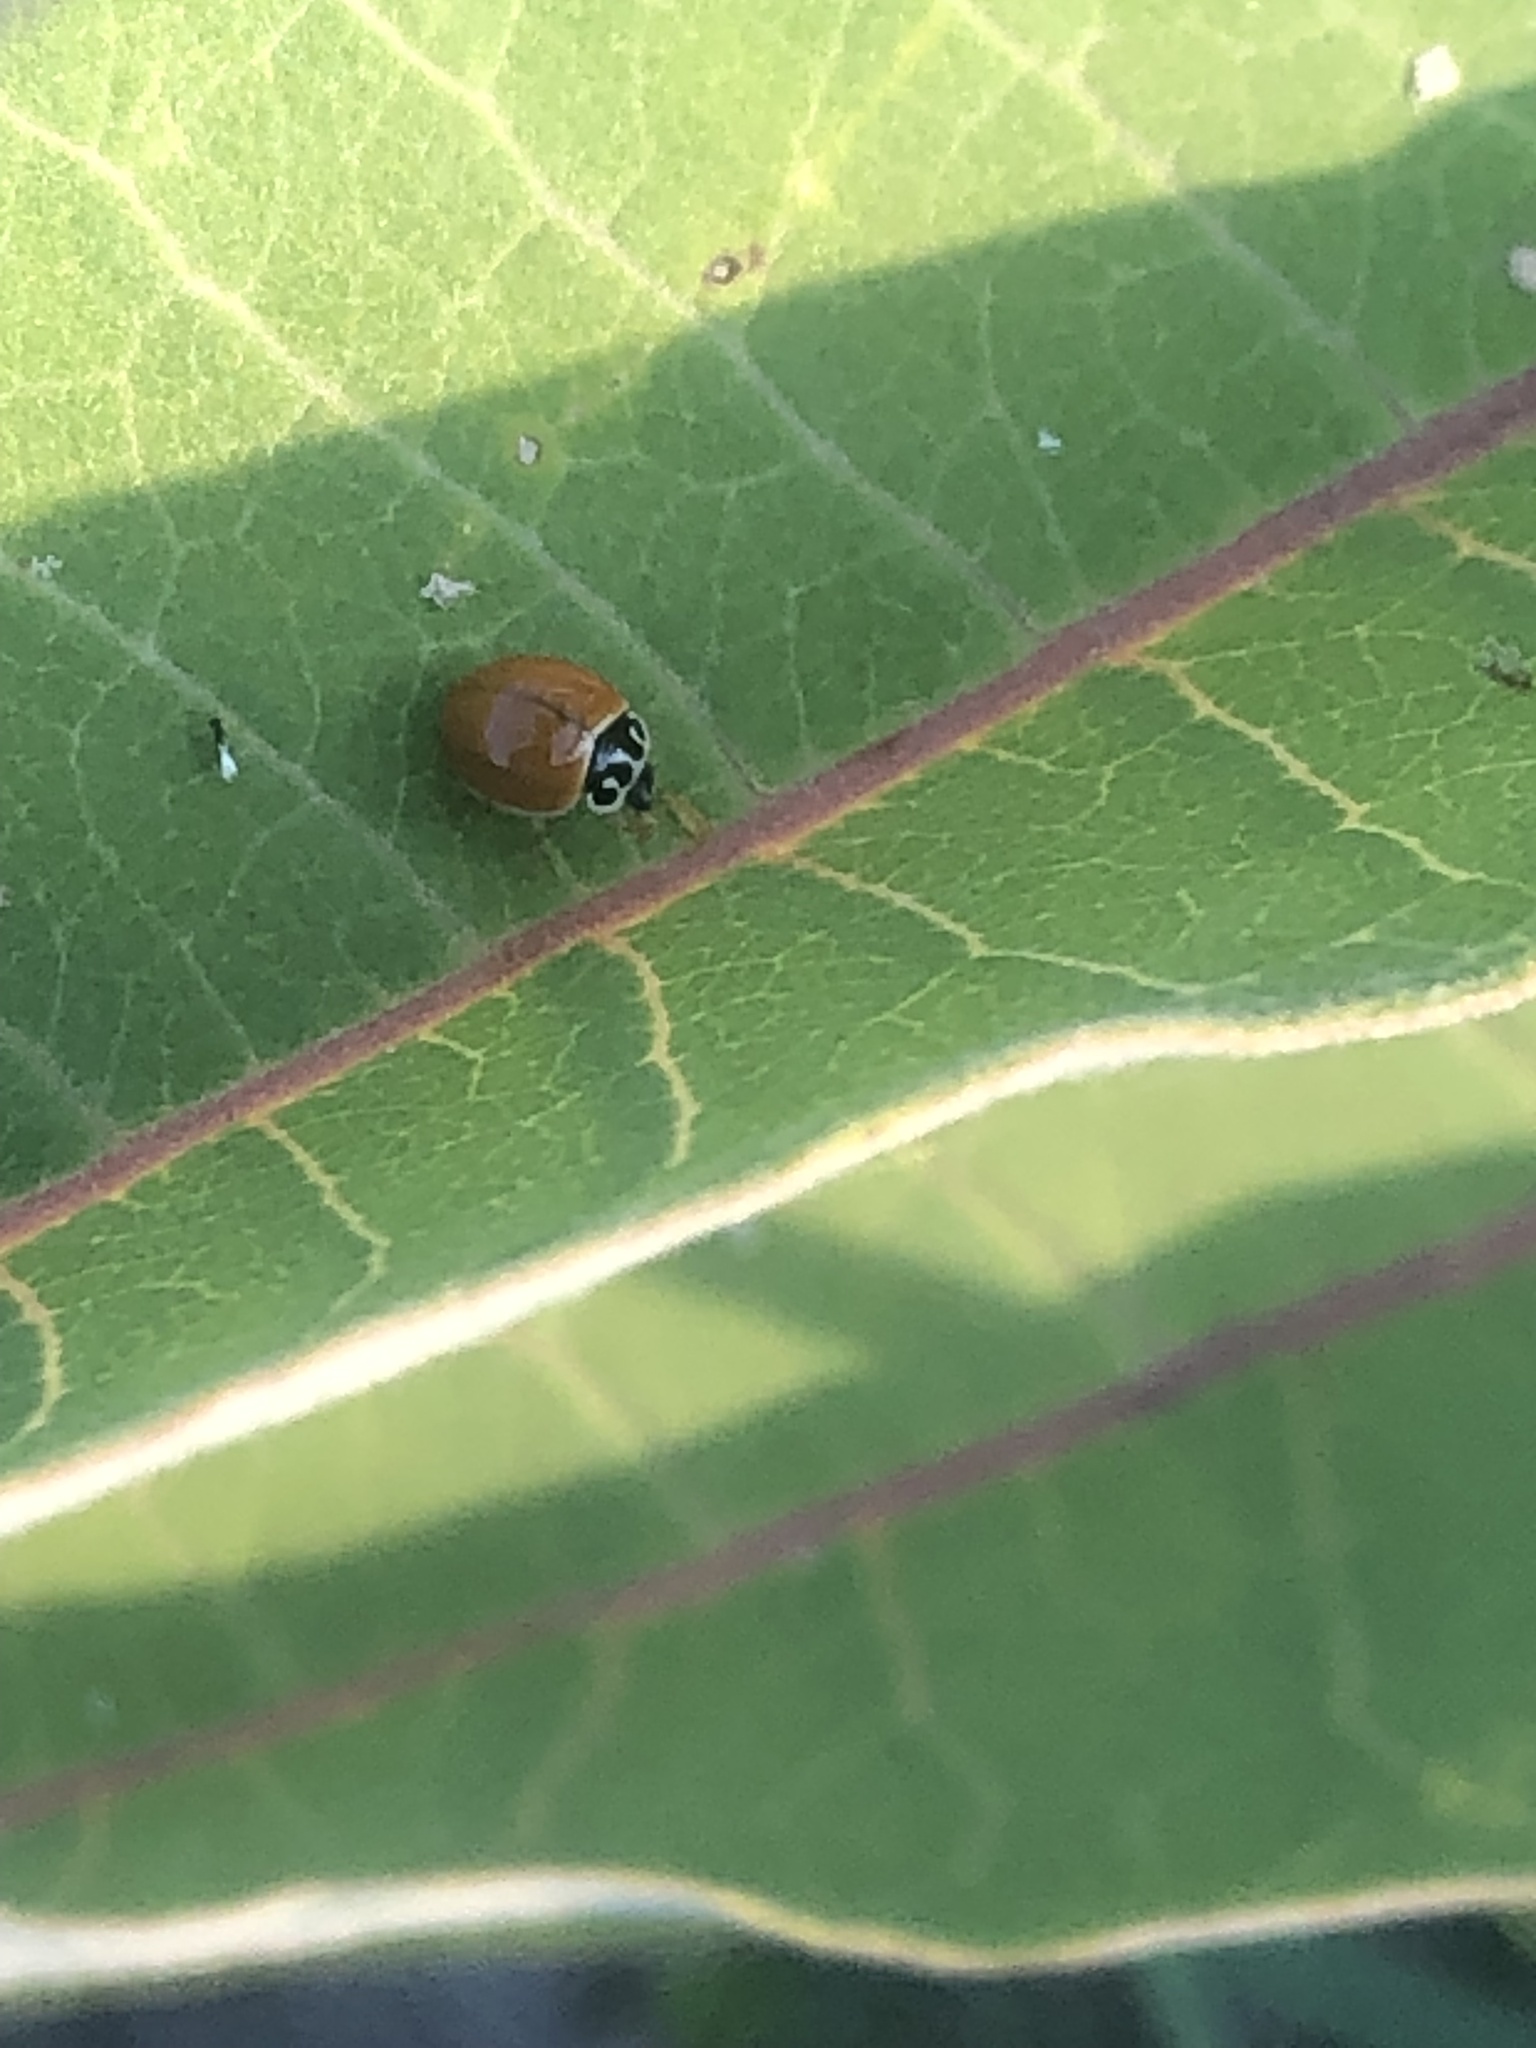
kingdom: Animalia
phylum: Arthropoda
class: Insecta
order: Coleoptera
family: Coccinellidae
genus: Cycloneda
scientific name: Cycloneda munda
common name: Polished lady beetle
